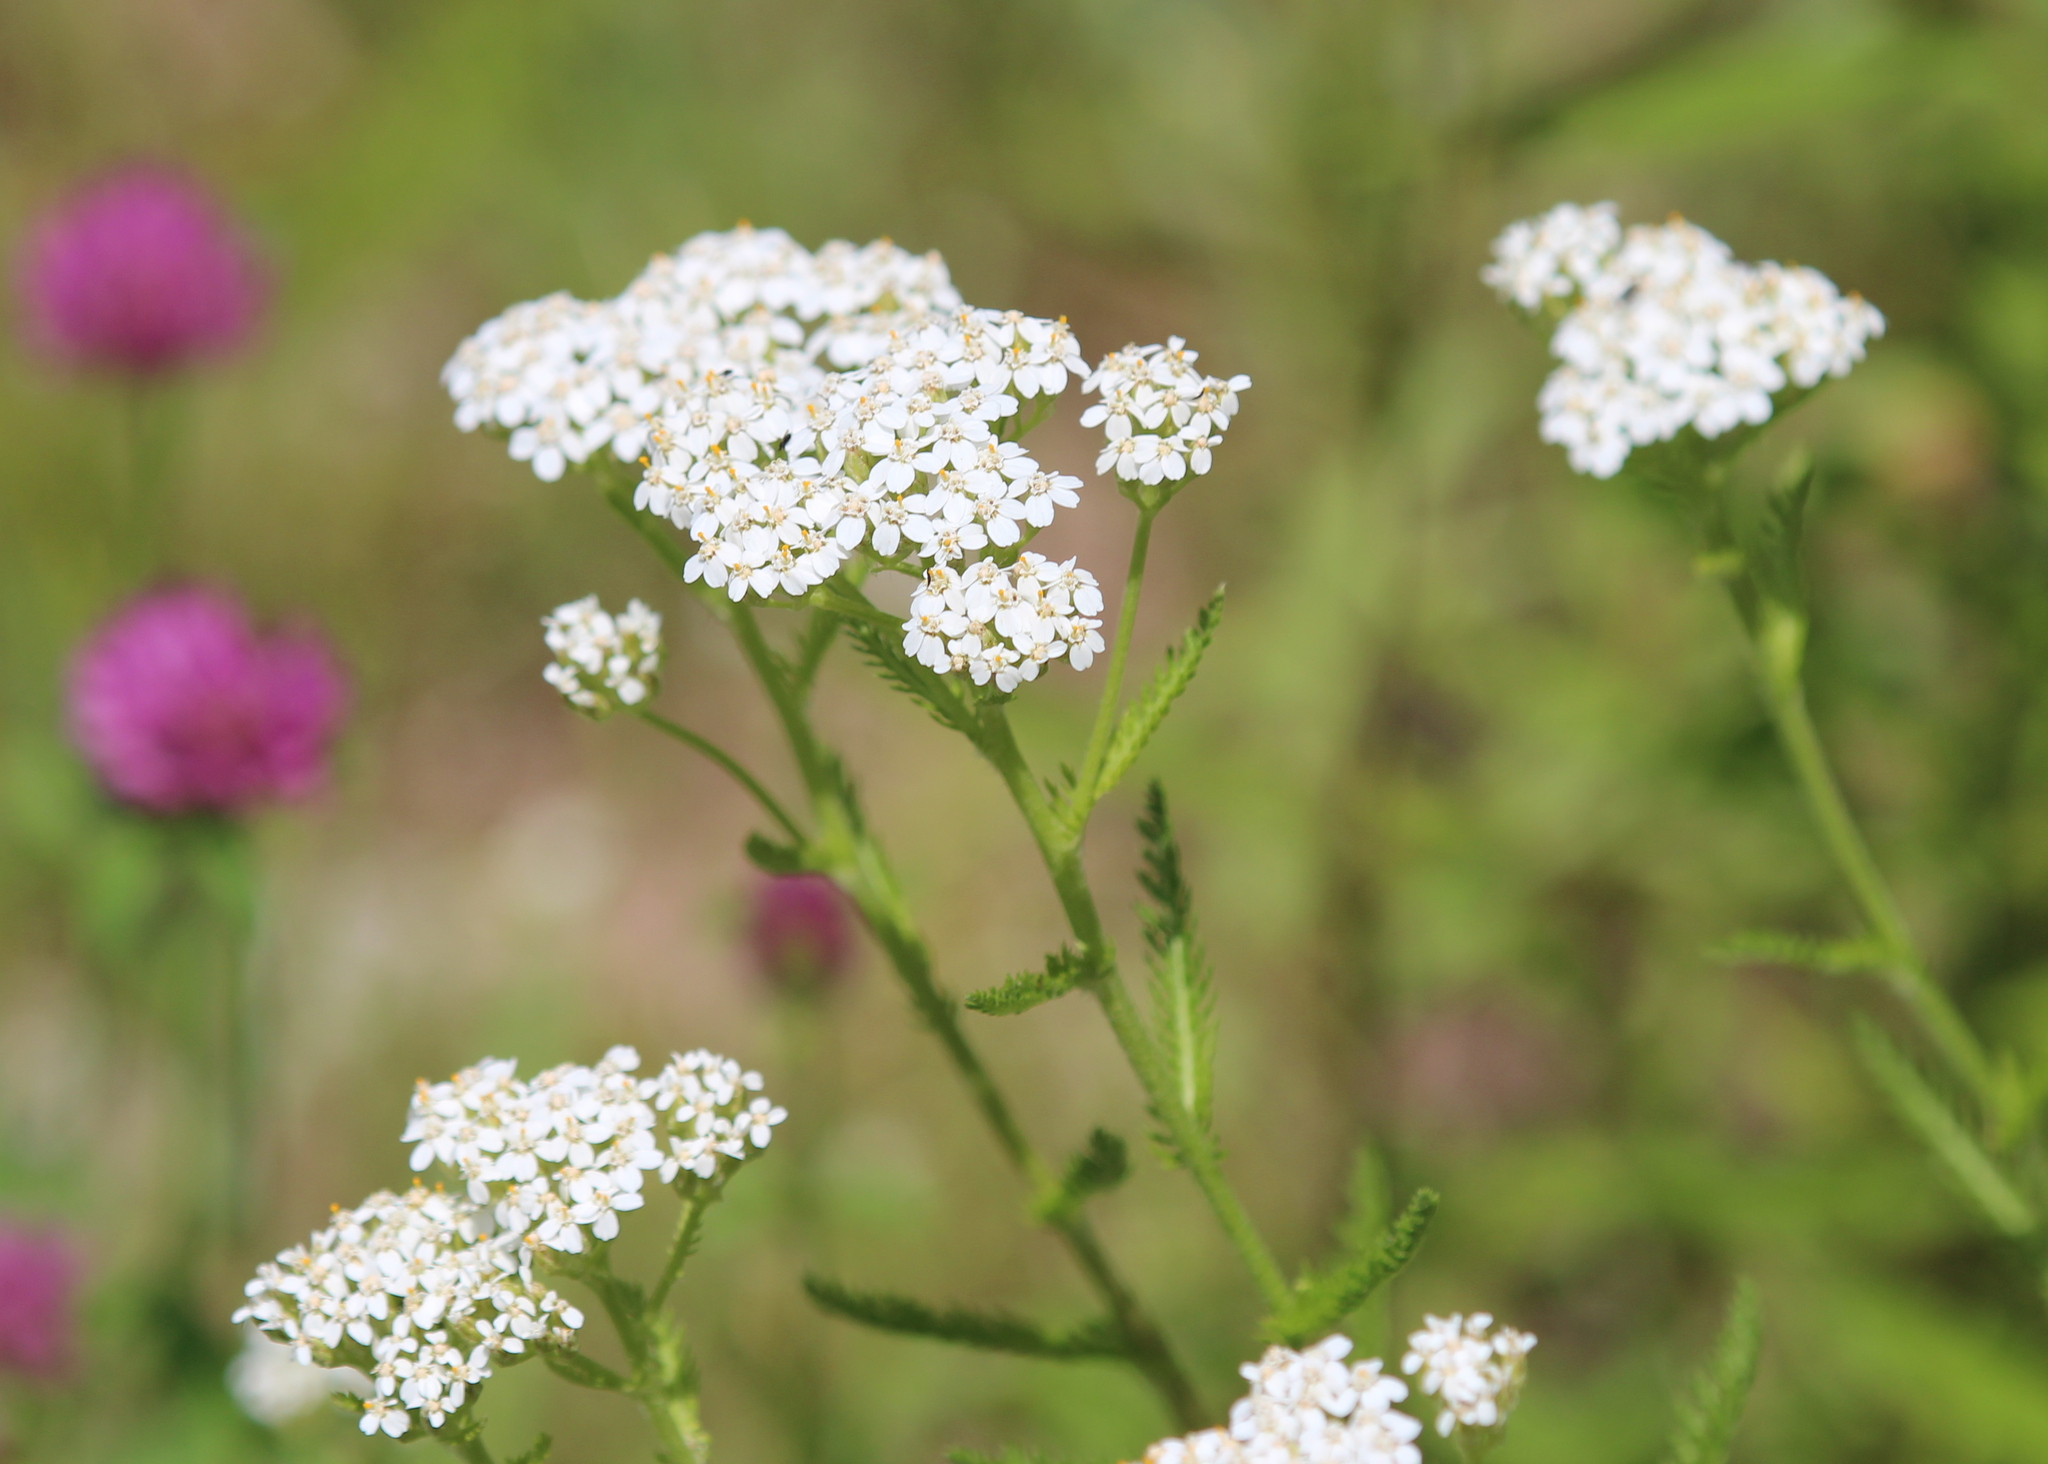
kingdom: Plantae
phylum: Tracheophyta
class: Magnoliopsida
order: Asterales
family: Asteraceae
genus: Achillea
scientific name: Achillea millefolium
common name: Yarrow
